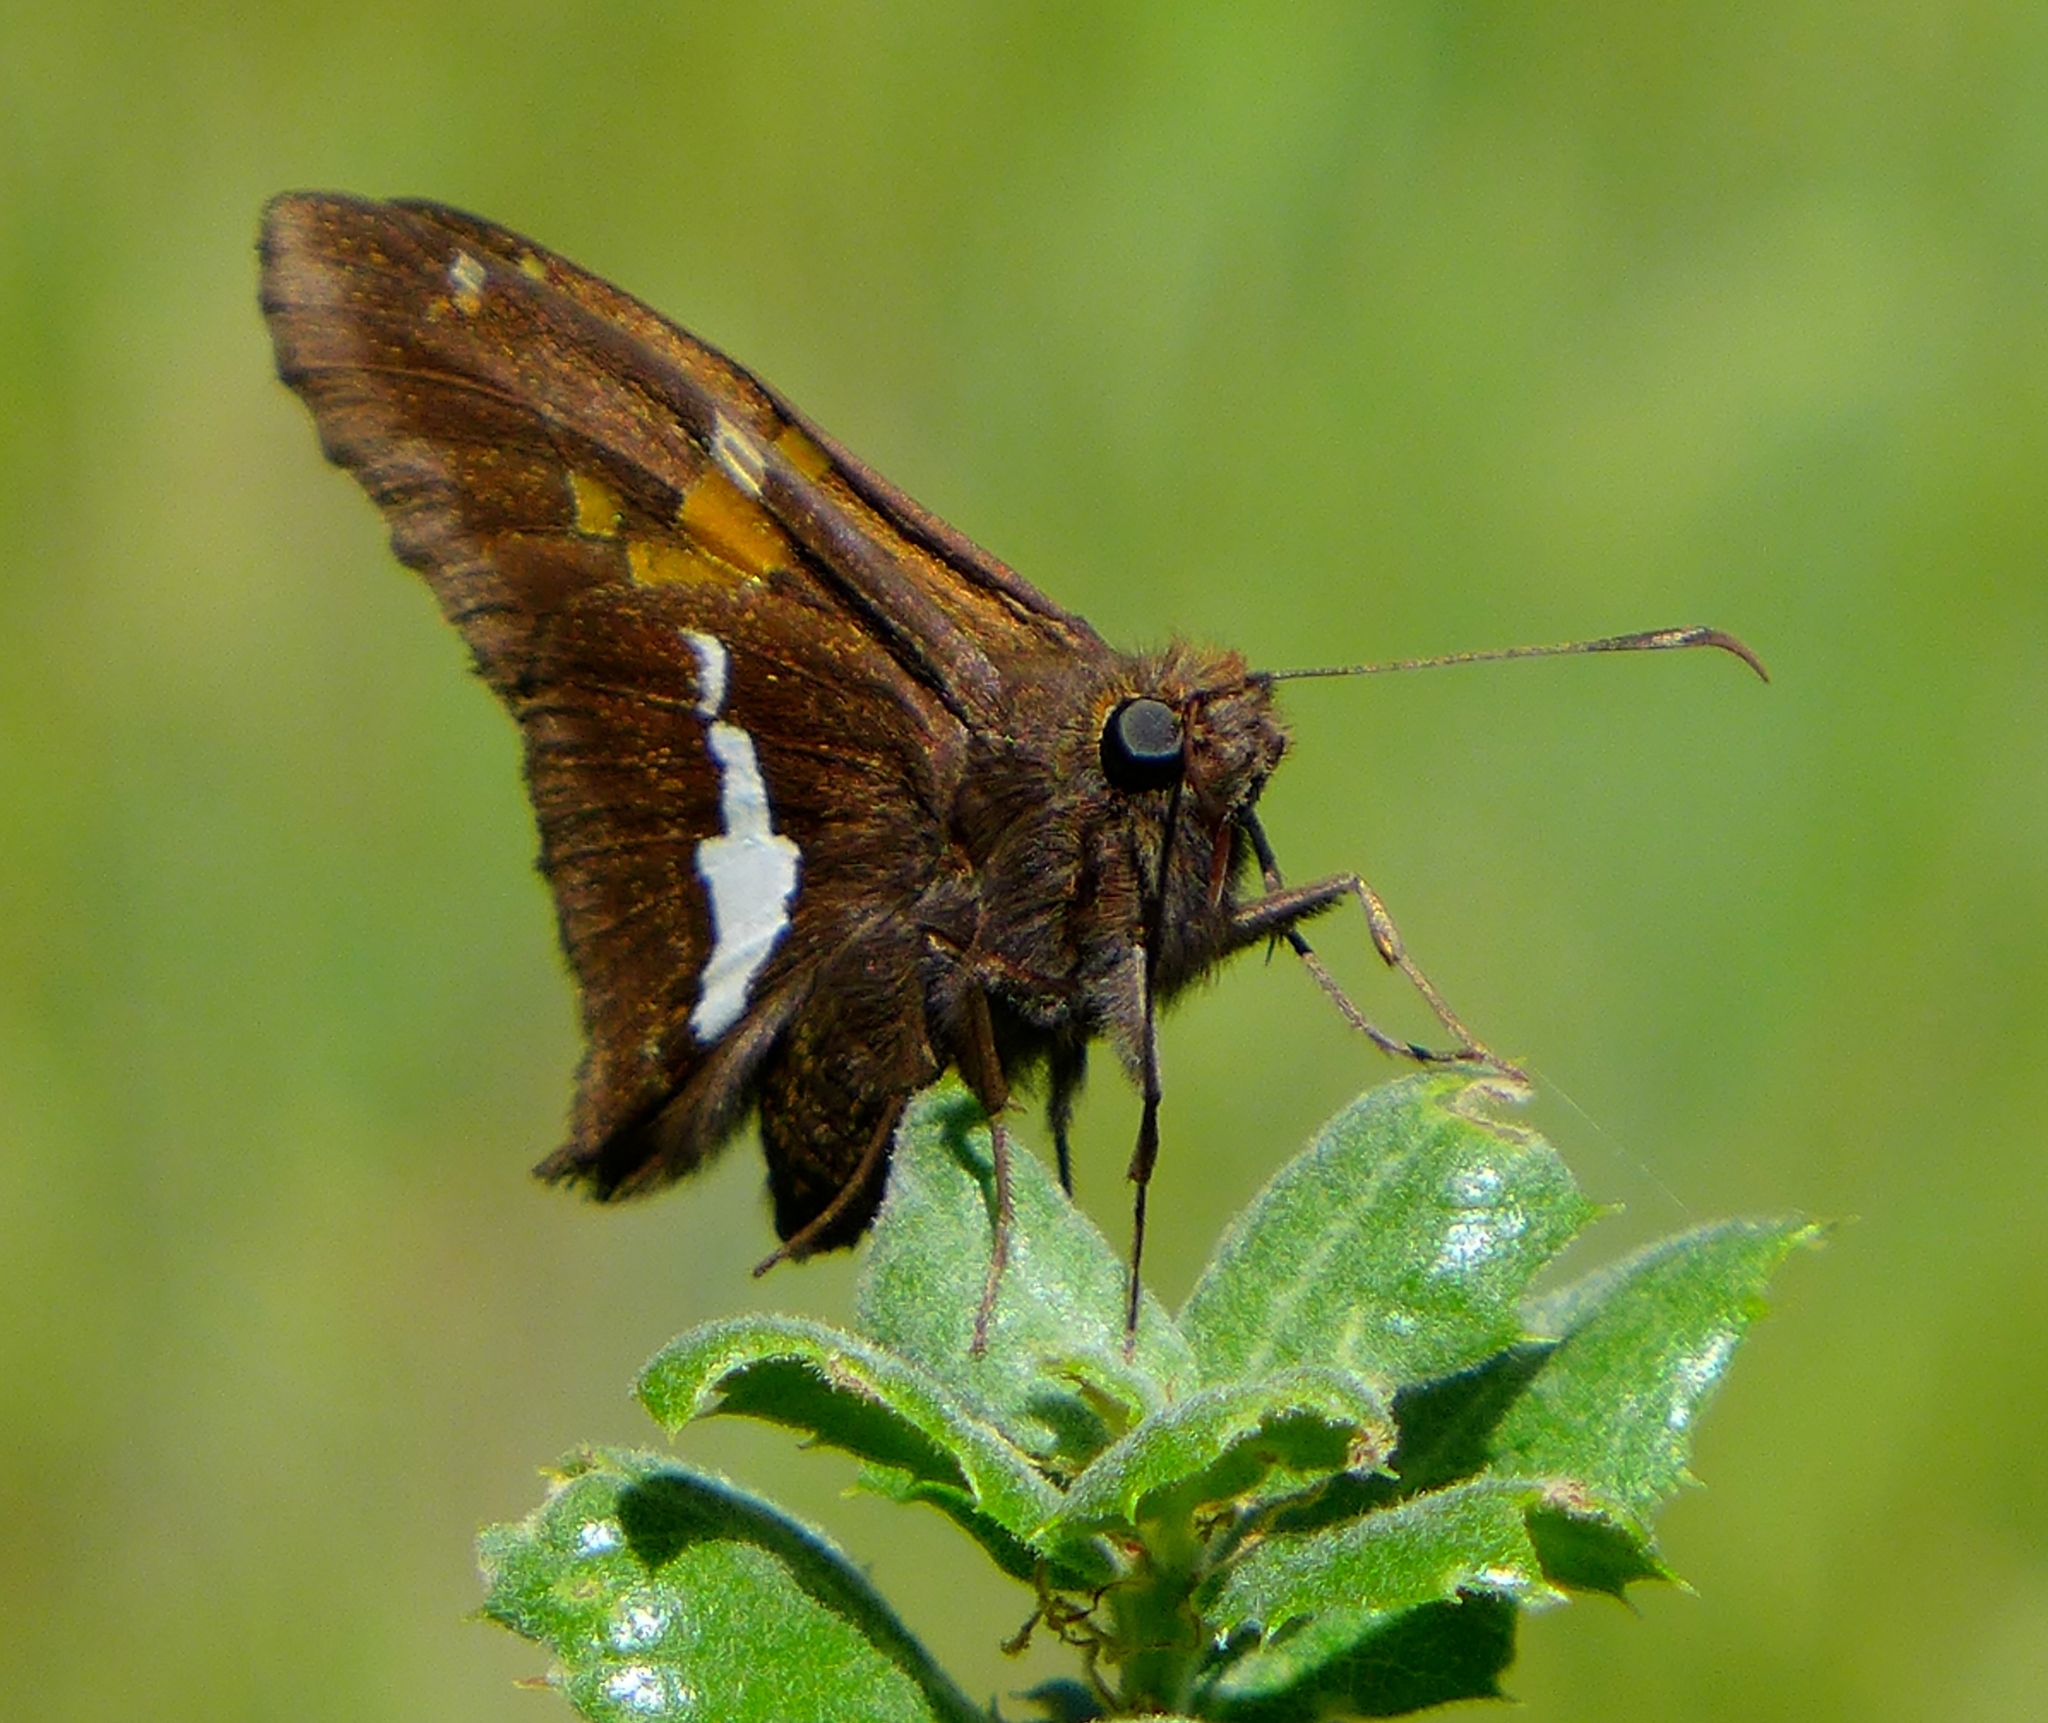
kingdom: Animalia
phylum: Arthropoda
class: Insecta
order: Lepidoptera
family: Hesperiidae
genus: Epargyreus
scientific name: Epargyreus clarus
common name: Silver-spotted skipper
